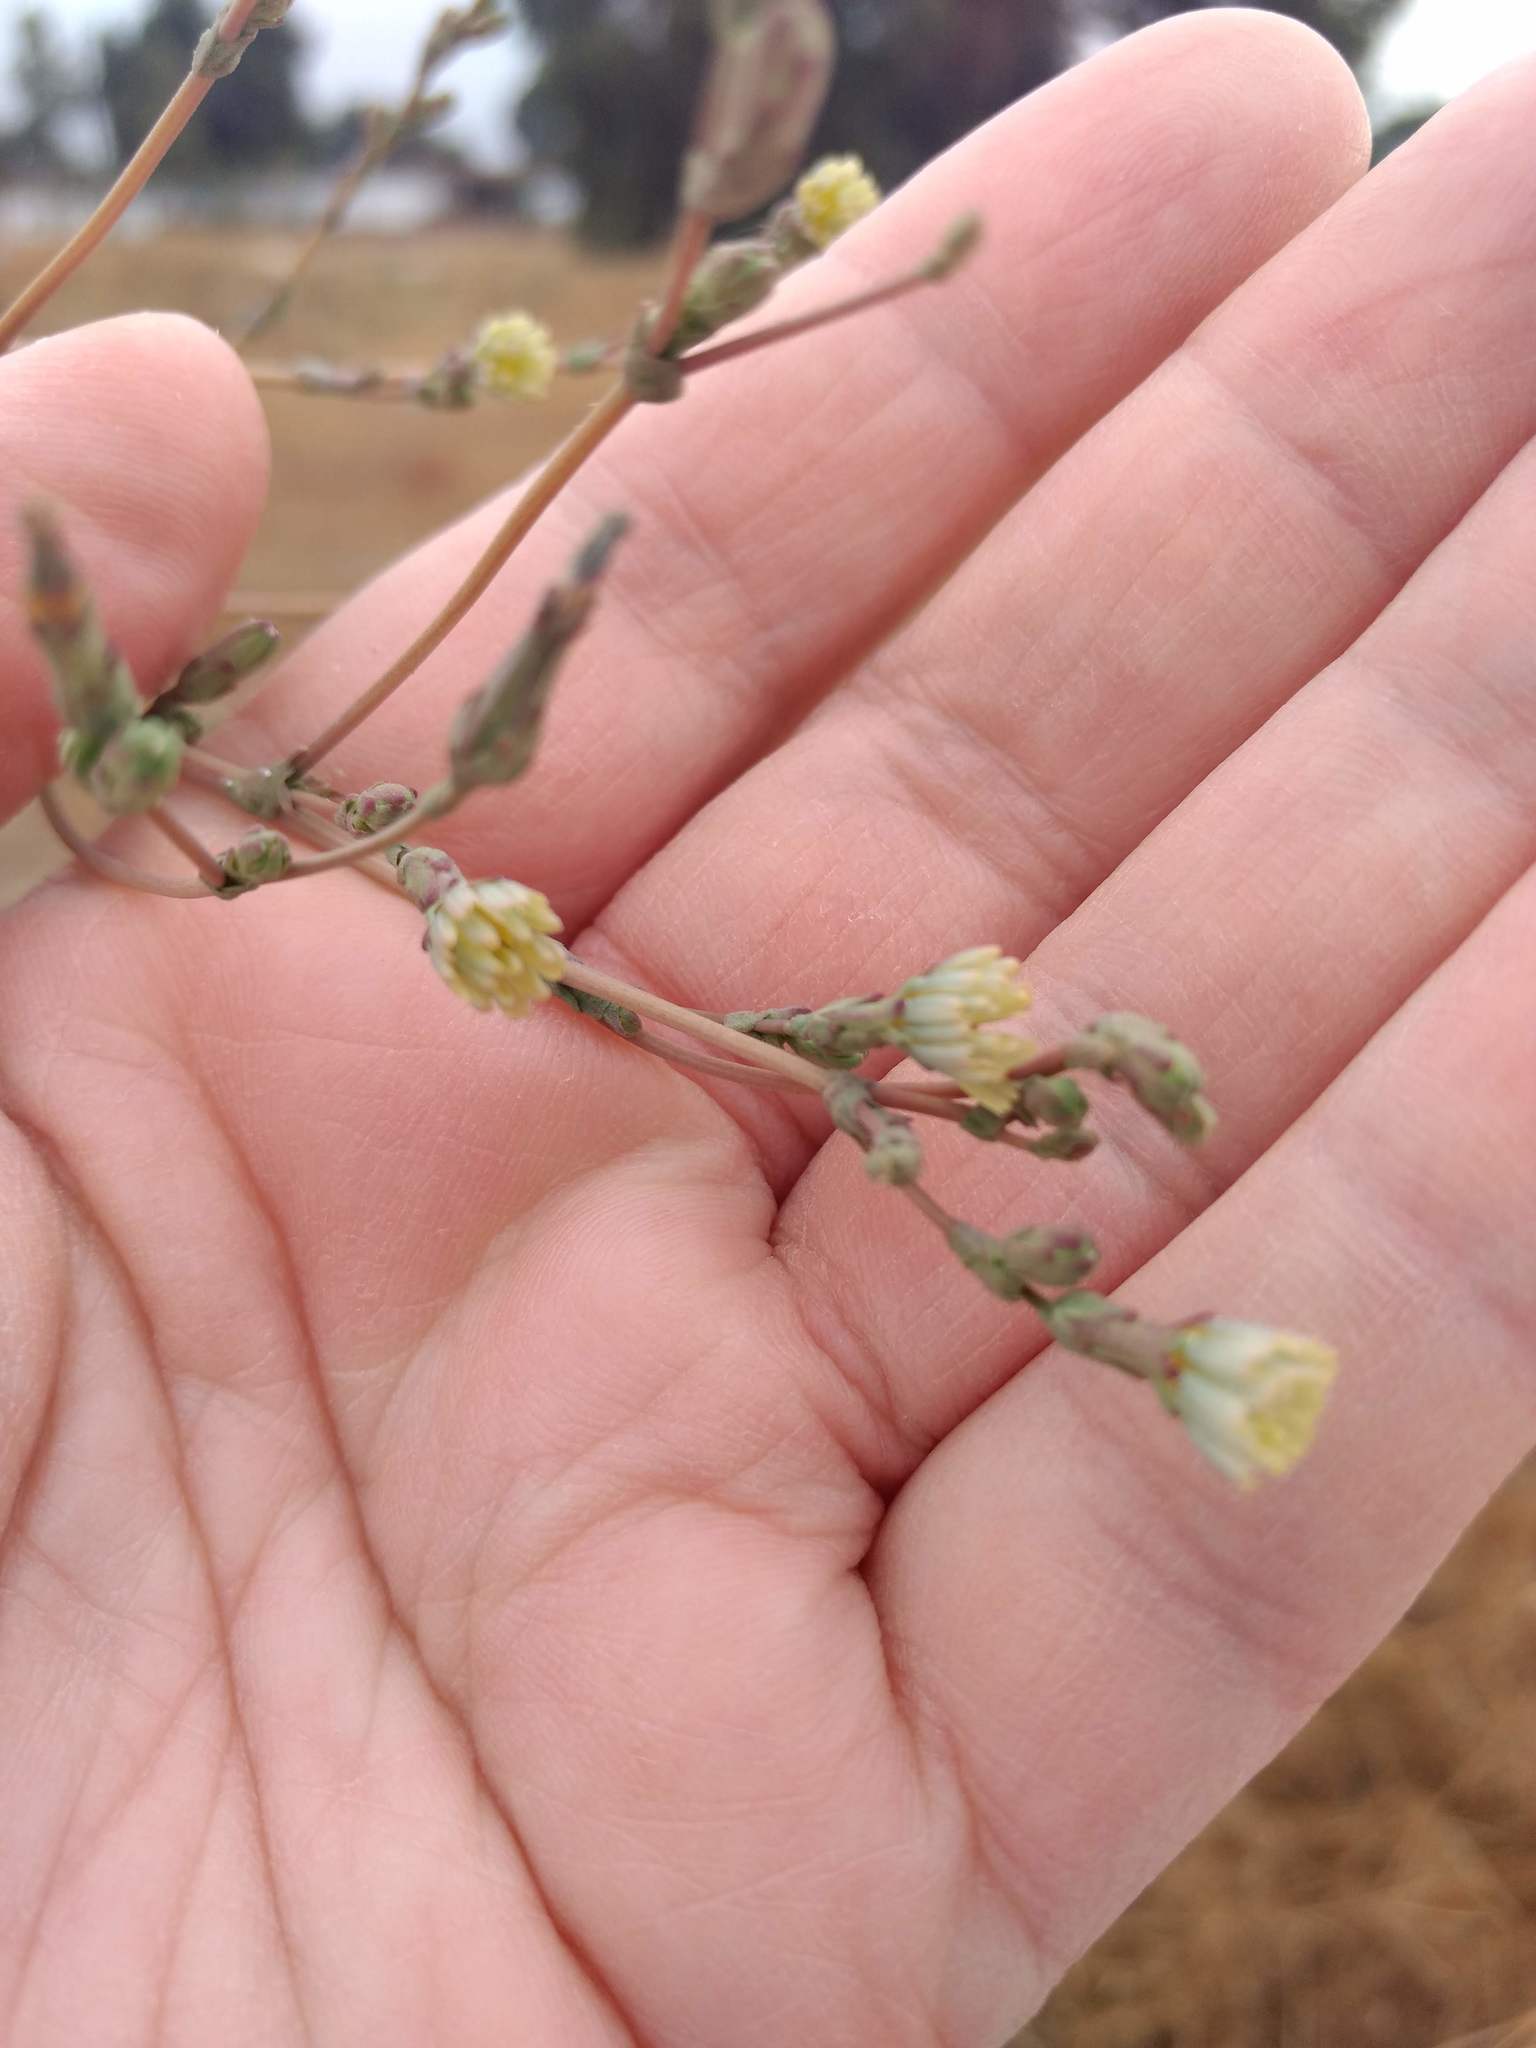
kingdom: Plantae
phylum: Tracheophyta
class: Magnoliopsida
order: Asterales
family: Asteraceae
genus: Lactuca
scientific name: Lactuca serriola
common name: Prickly lettuce
